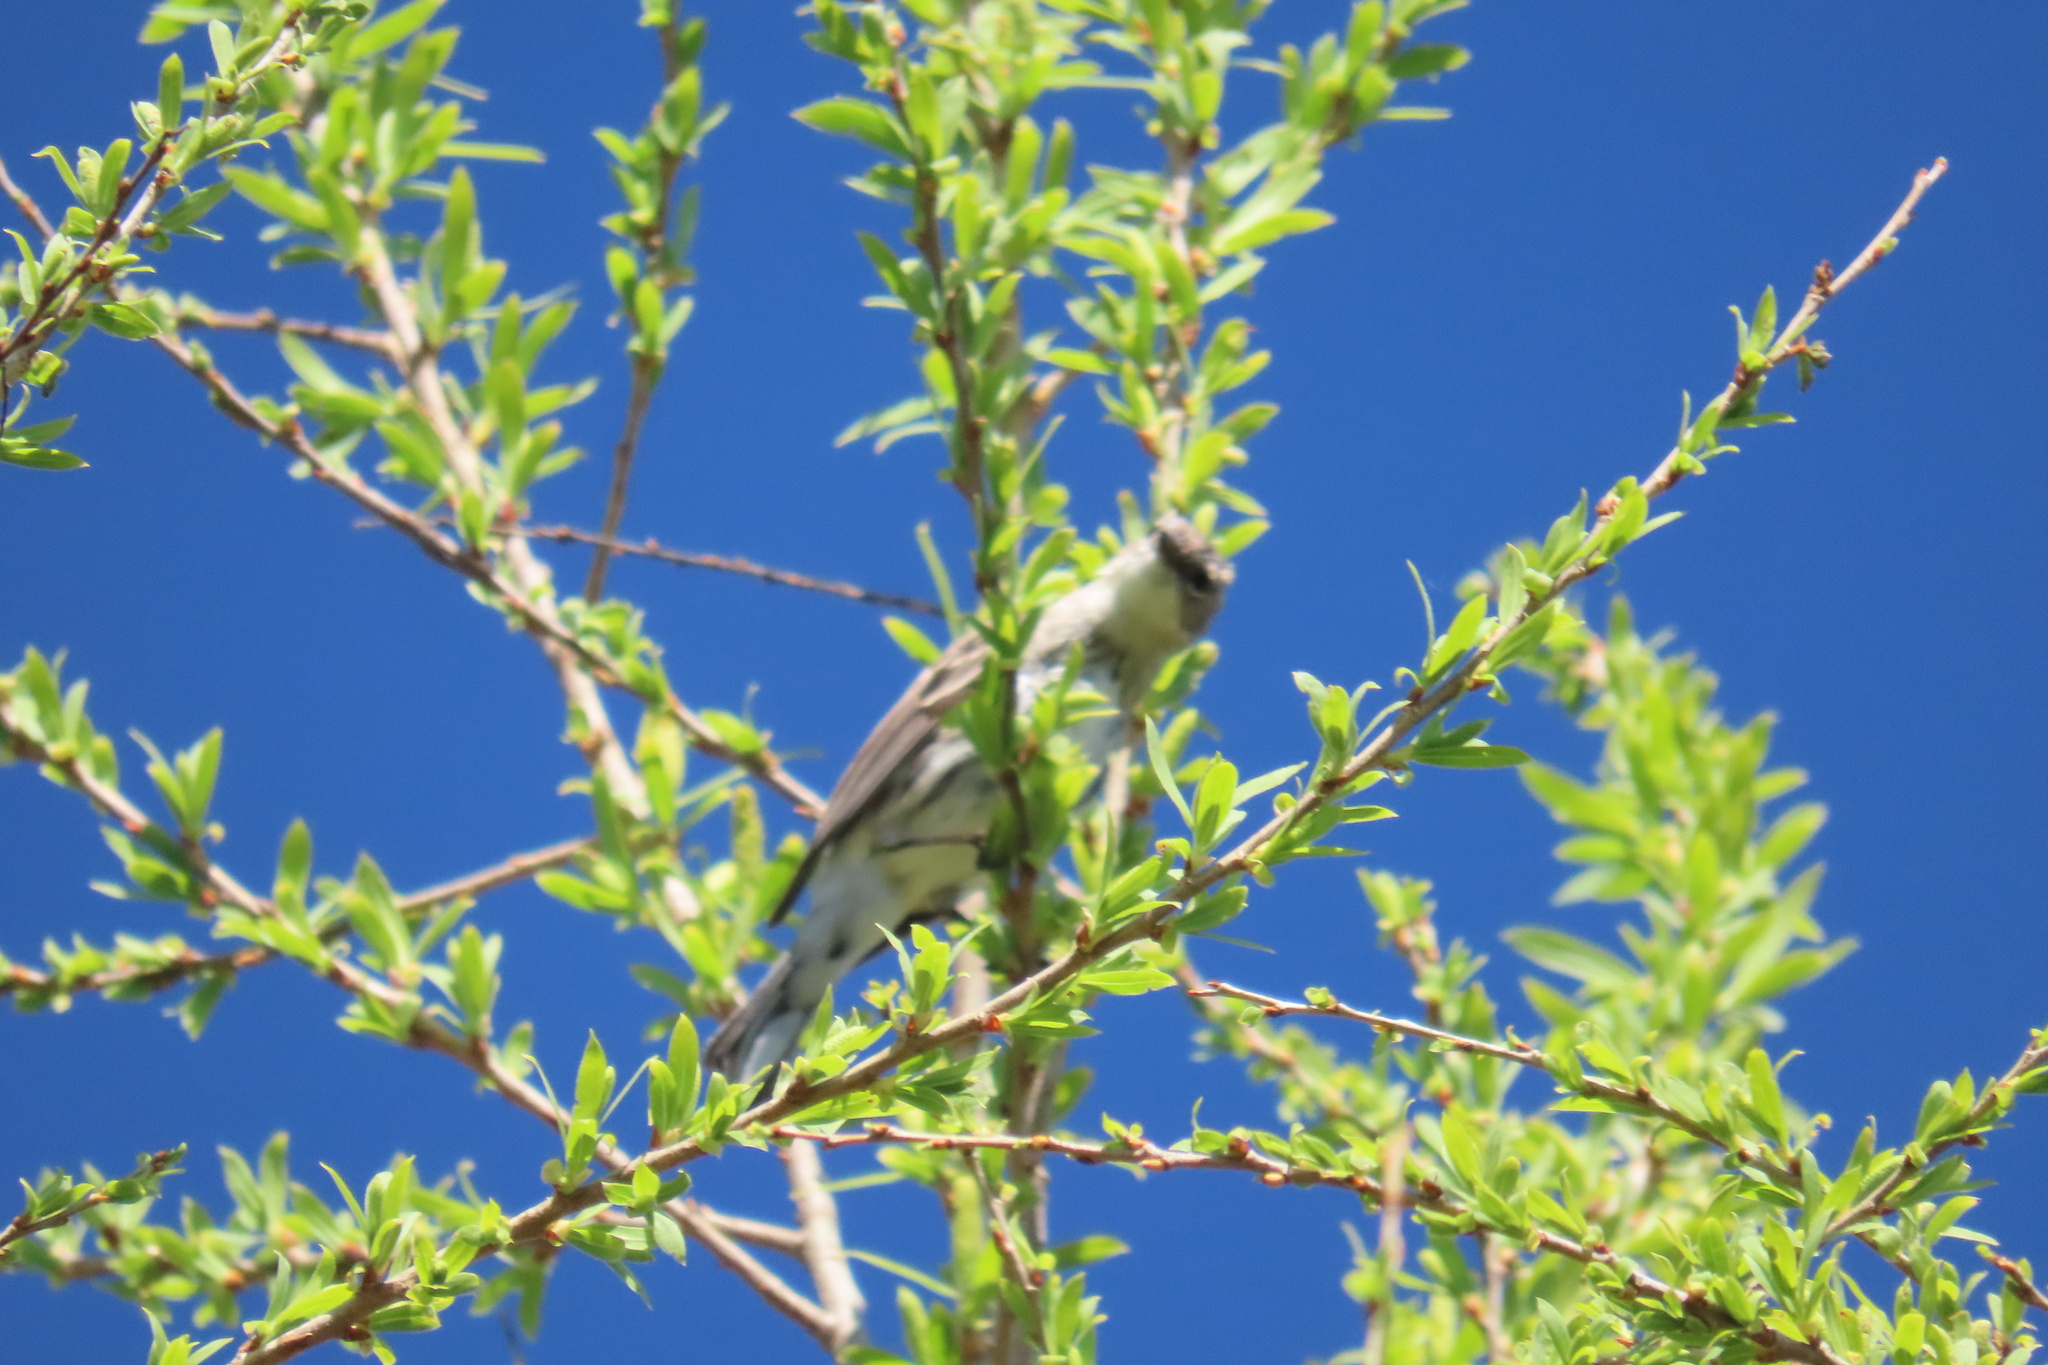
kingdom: Animalia
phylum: Chordata
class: Aves
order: Passeriformes
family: Parulidae
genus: Setophaga
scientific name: Setophaga coronata
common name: Myrtle warbler
